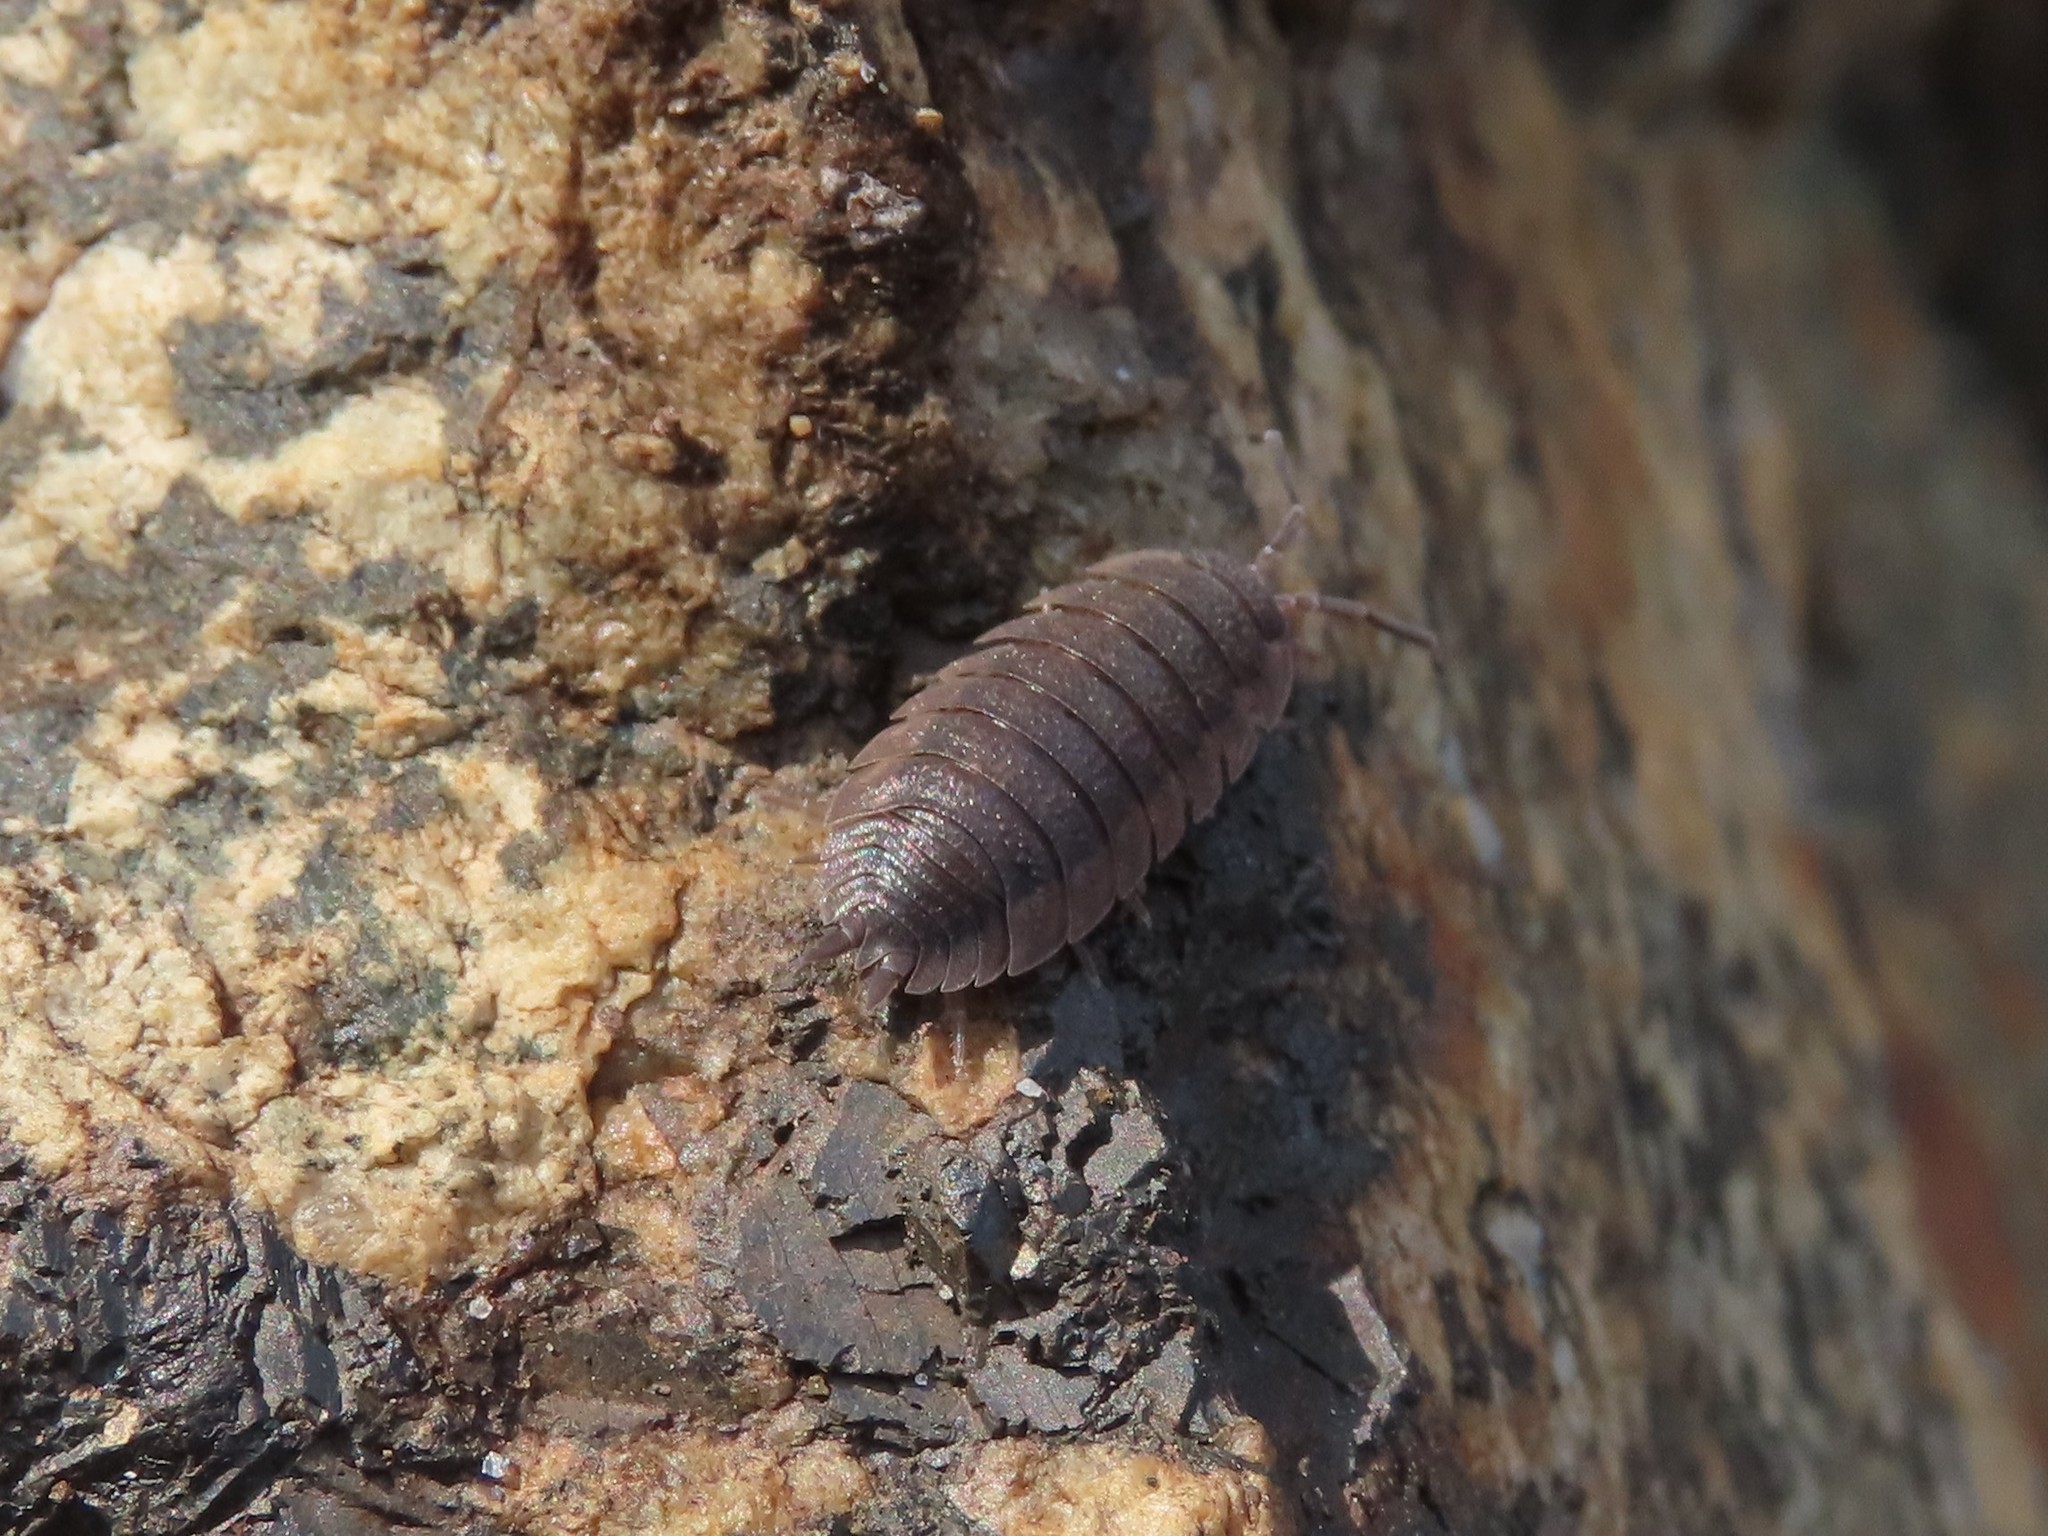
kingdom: Animalia
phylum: Arthropoda
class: Malacostraca
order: Isopoda
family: Porcellionidae
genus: Porcellio
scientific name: Porcellio scaber
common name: Common rough woodlouse
